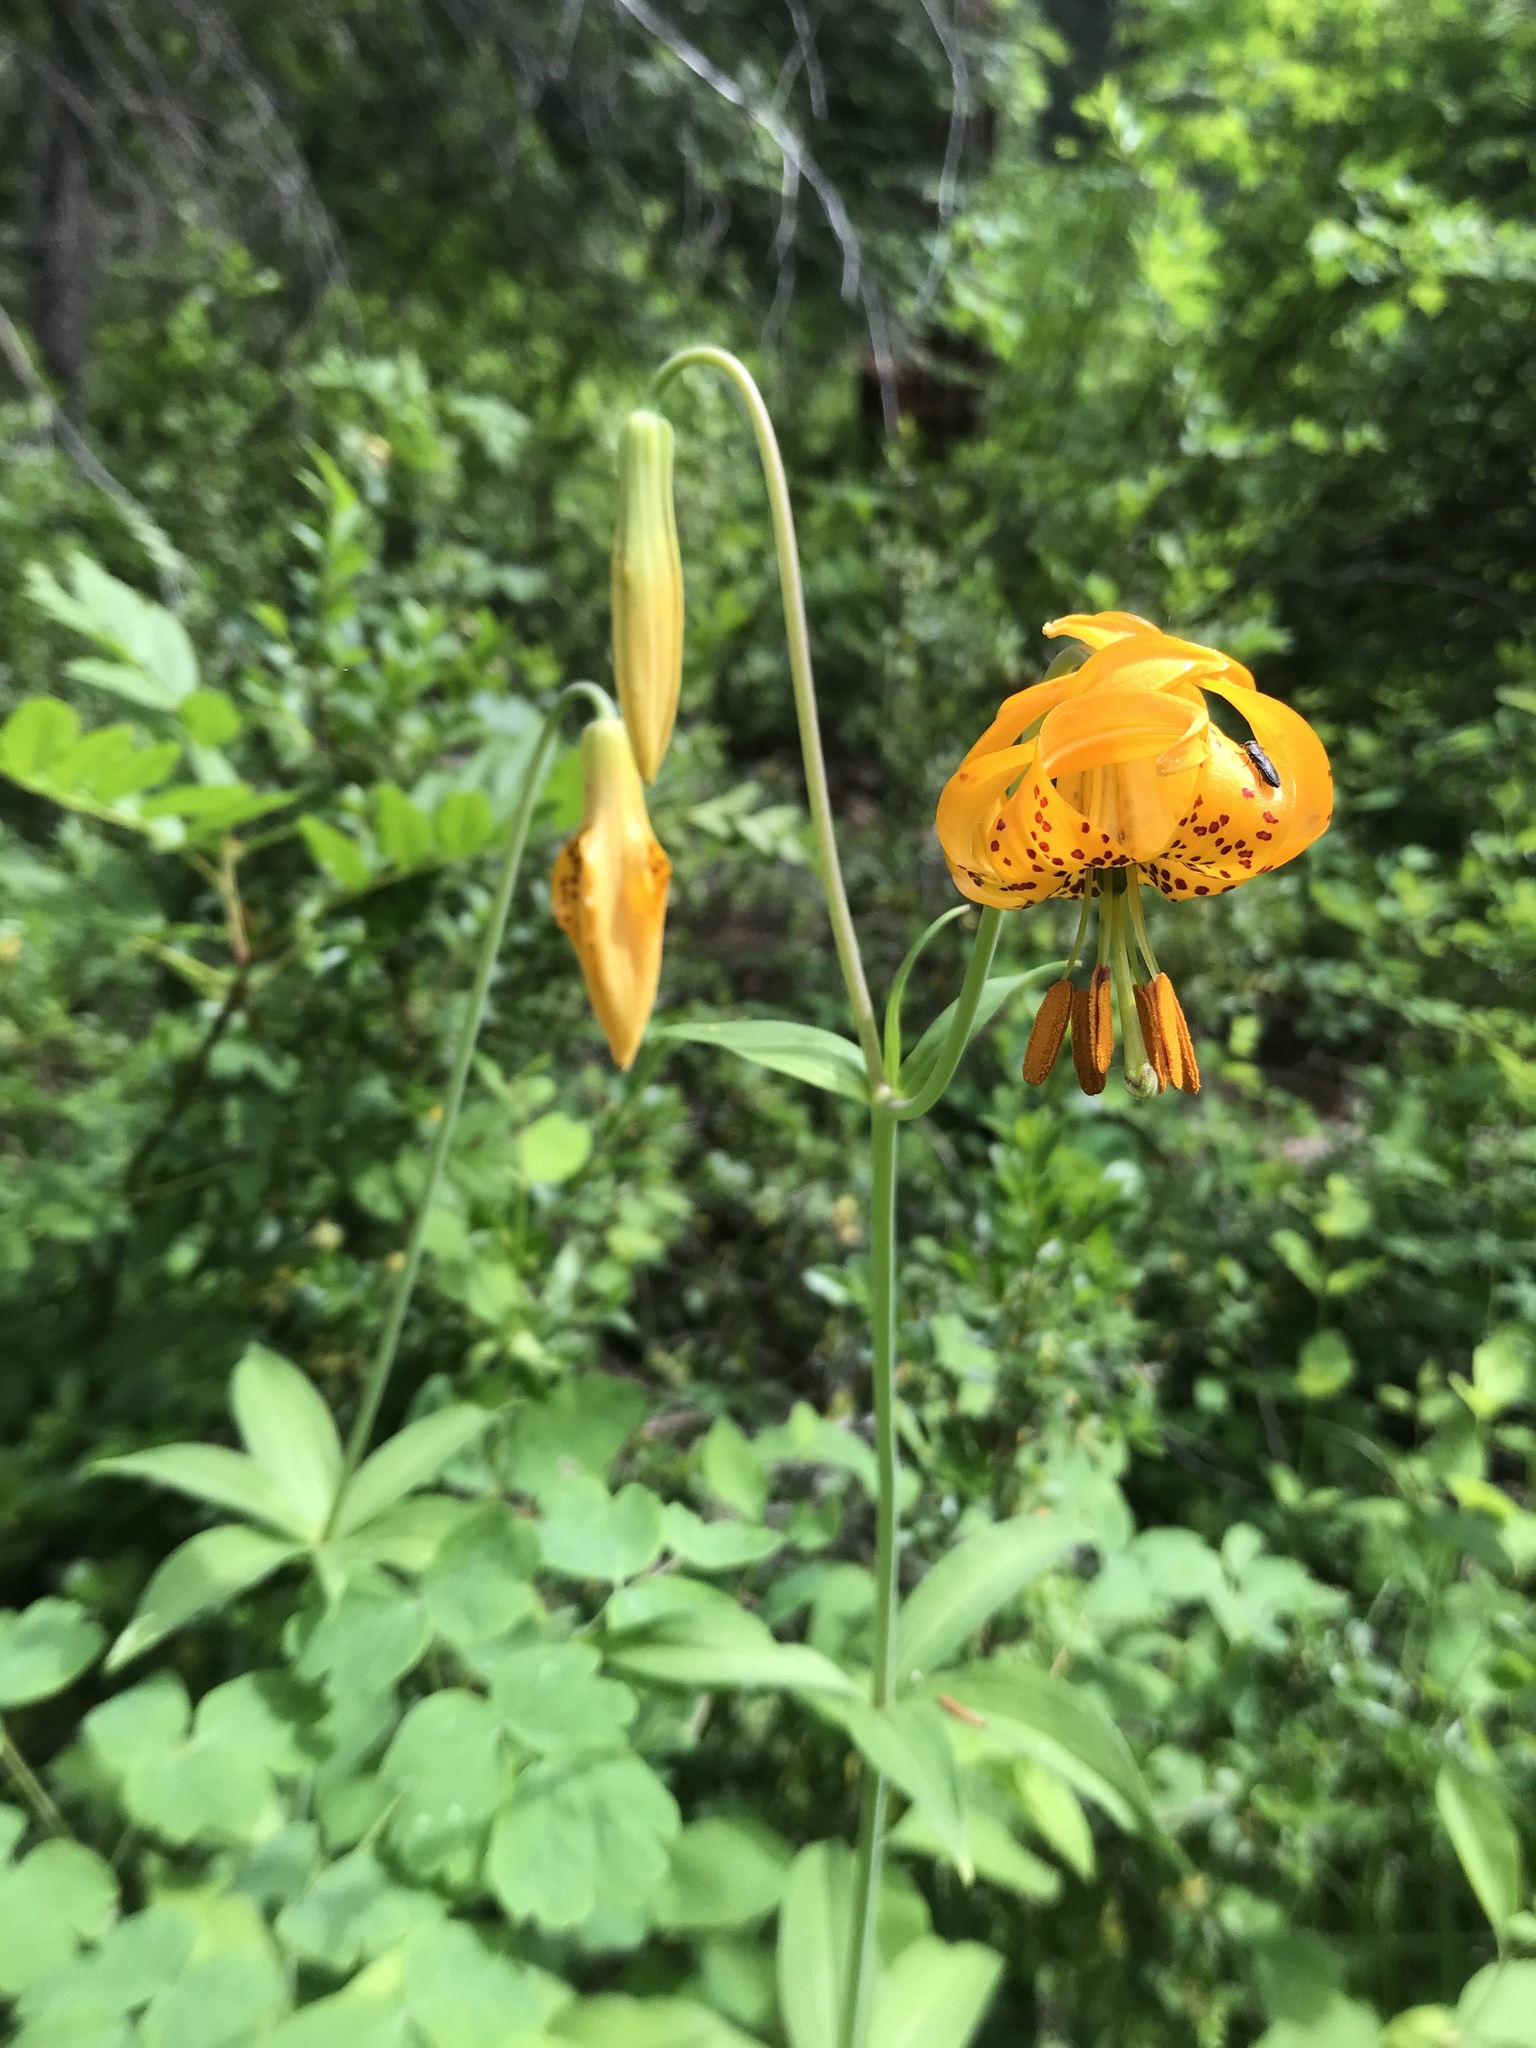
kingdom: Plantae
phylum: Tracheophyta
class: Liliopsida
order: Liliales
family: Liliaceae
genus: Lilium
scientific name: Lilium columbianum
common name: Columbia lily
